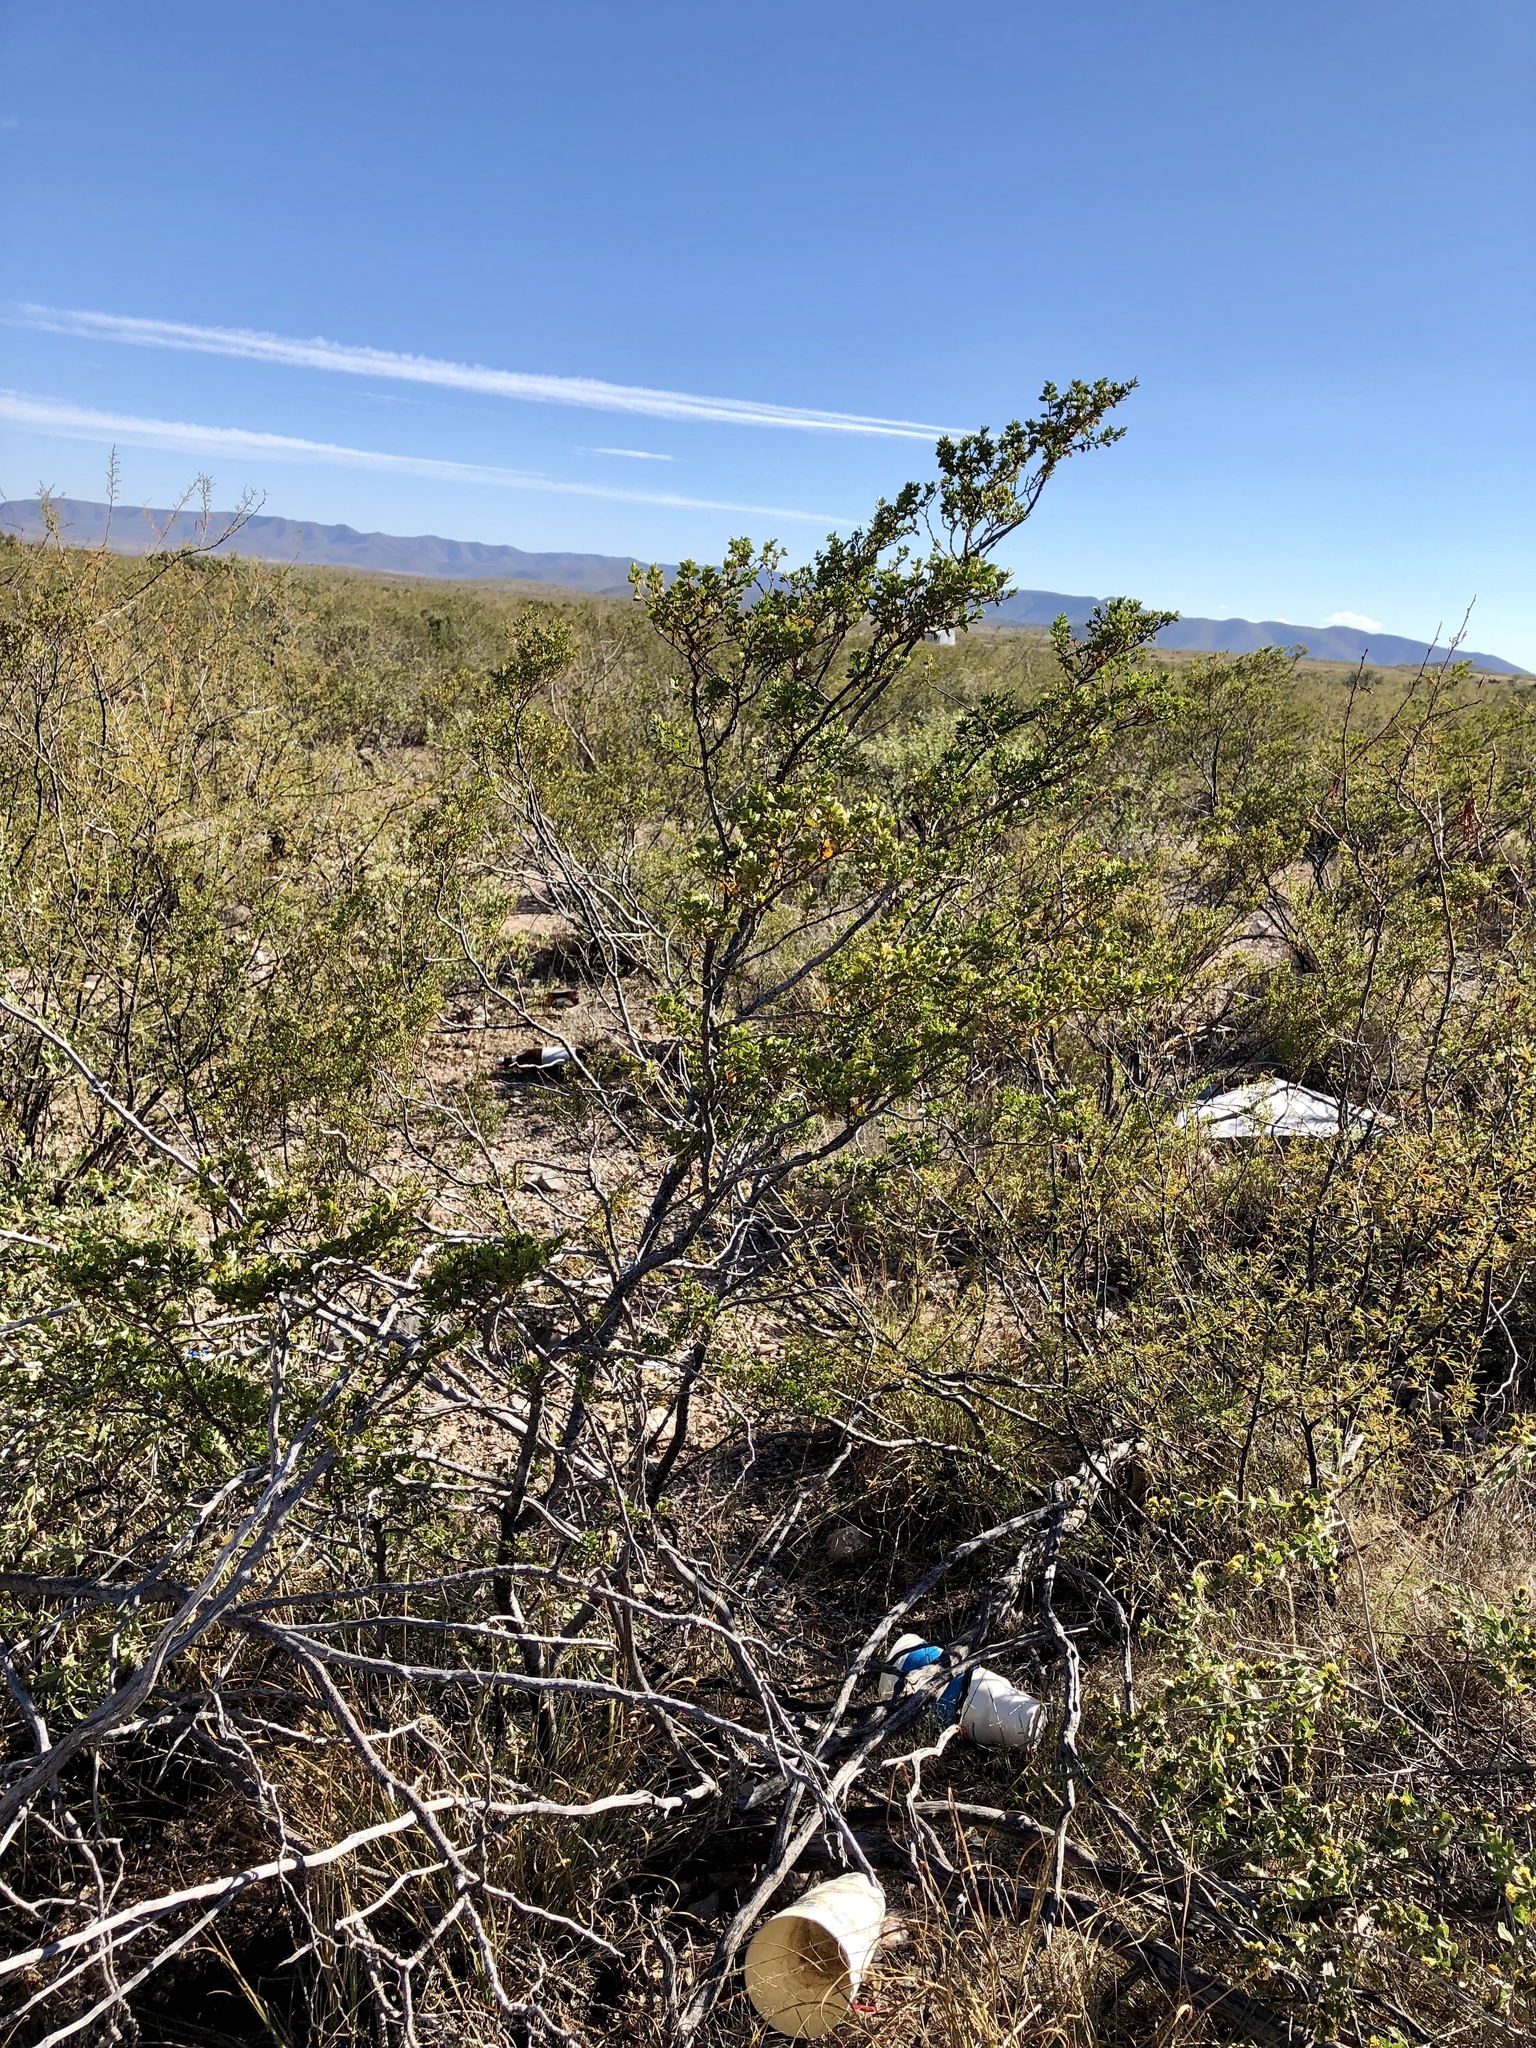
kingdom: Plantae
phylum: Tracheophyta
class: Magnoliopsida
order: Zygophyllales
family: Zygophyllaceae
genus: Larrea
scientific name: Larrea tridentata
